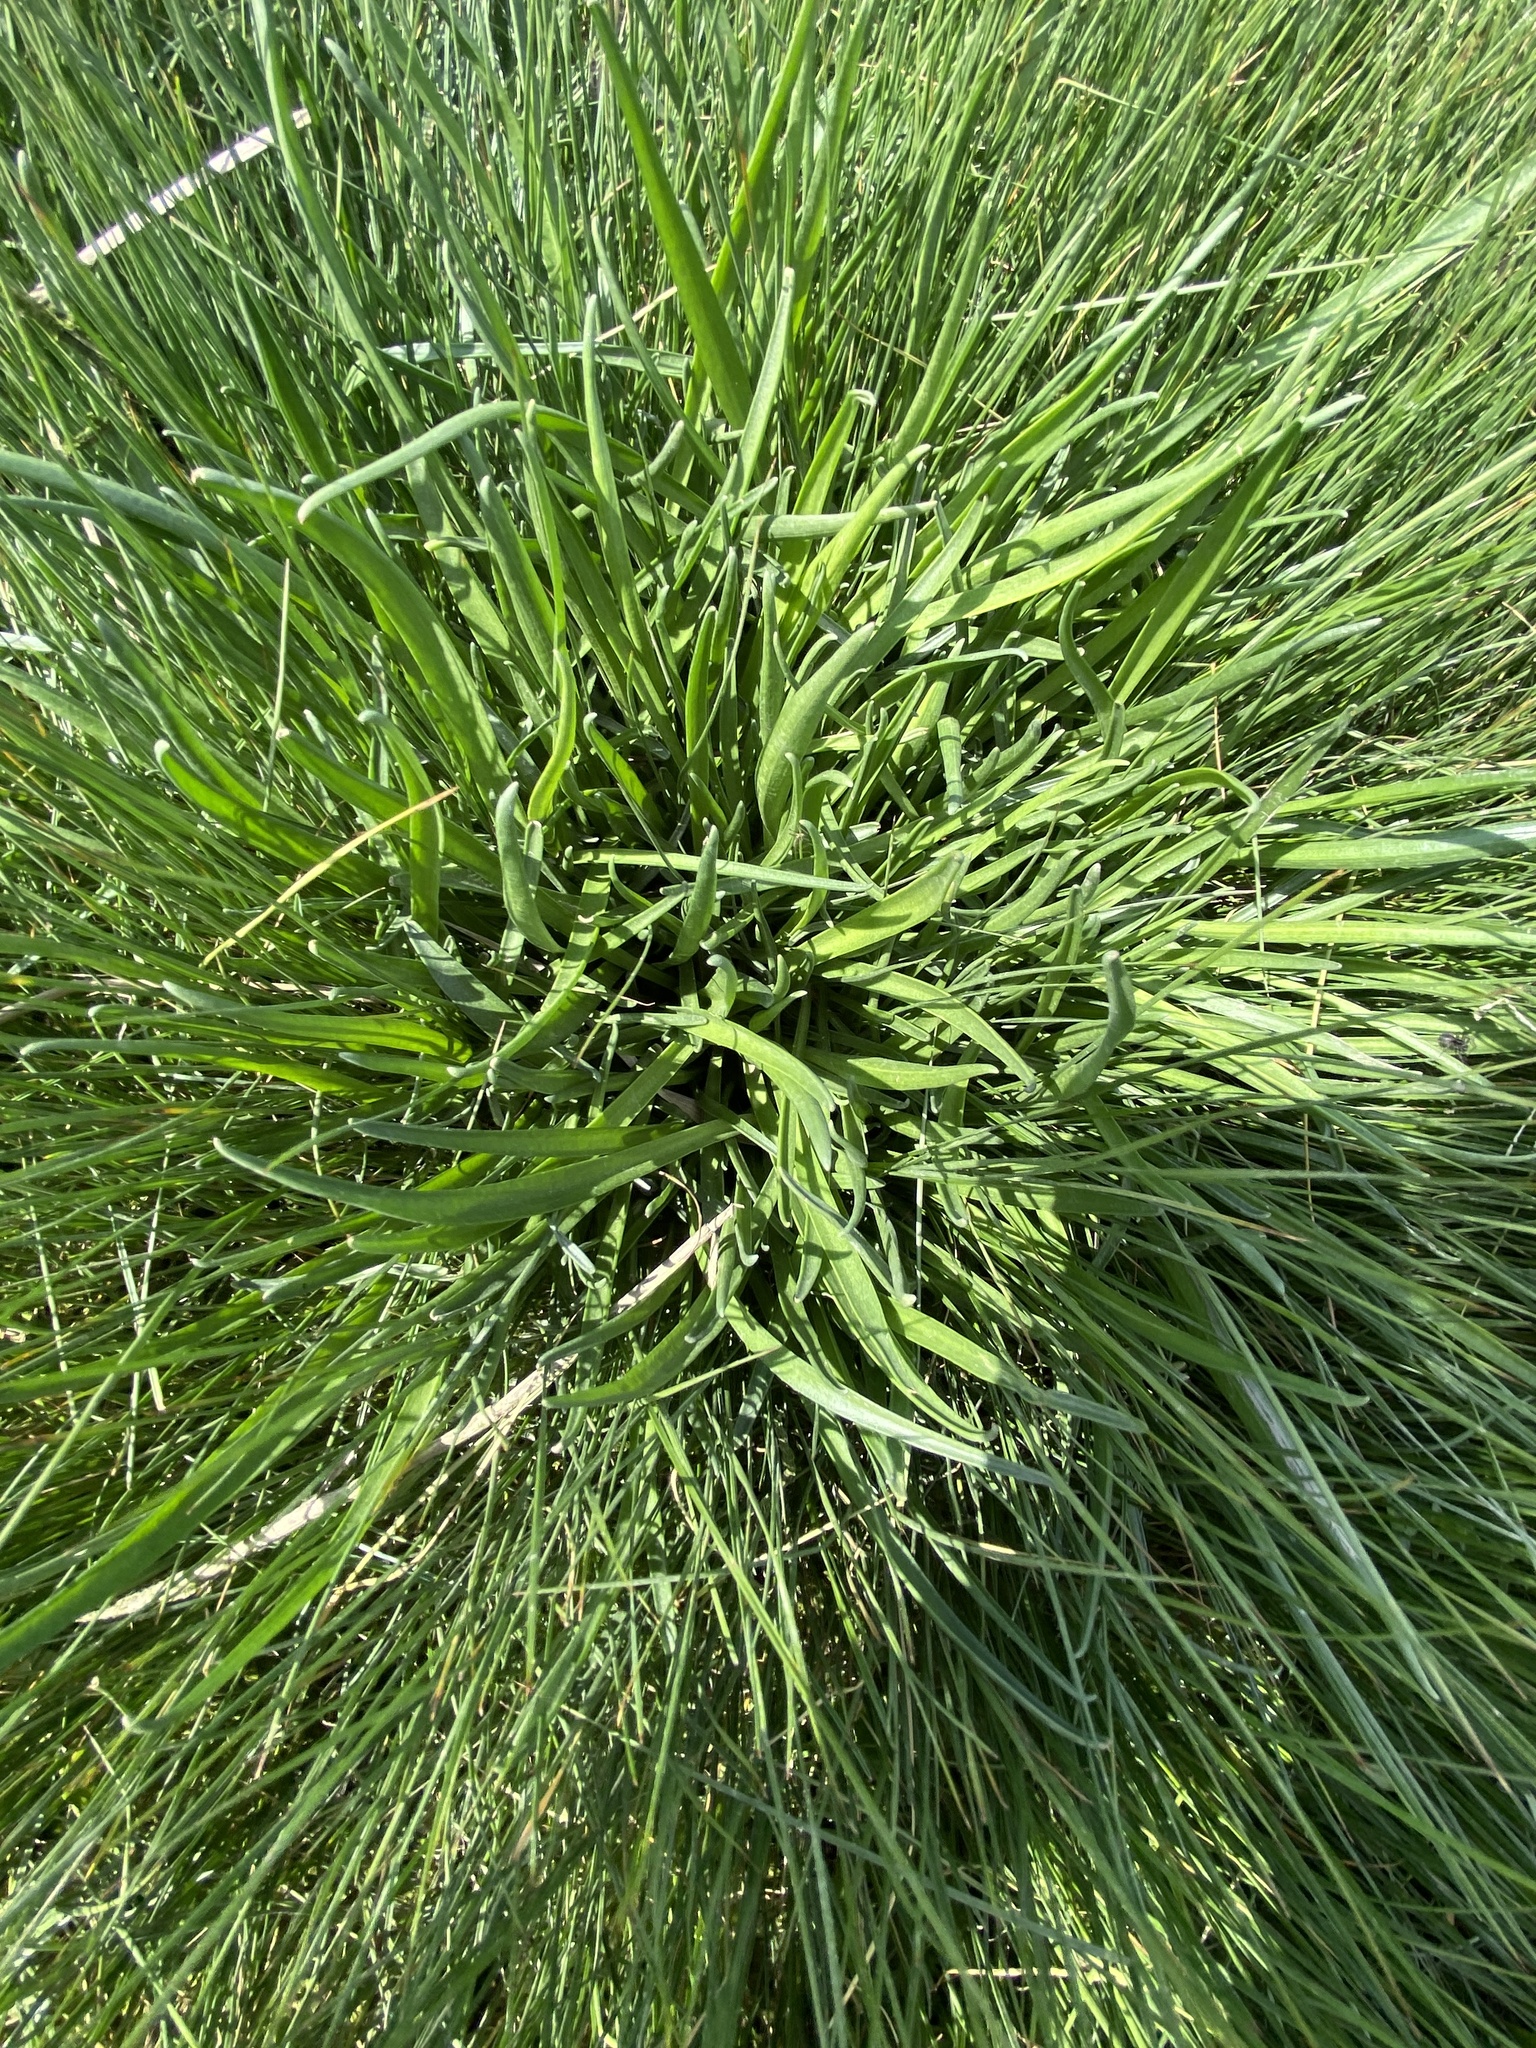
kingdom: Plantae
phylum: Tracheophyta
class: Magnoliopsida
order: Lamiales
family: Plantaginaceae
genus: Plantago
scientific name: Plantago maritima
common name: Sea plantain
